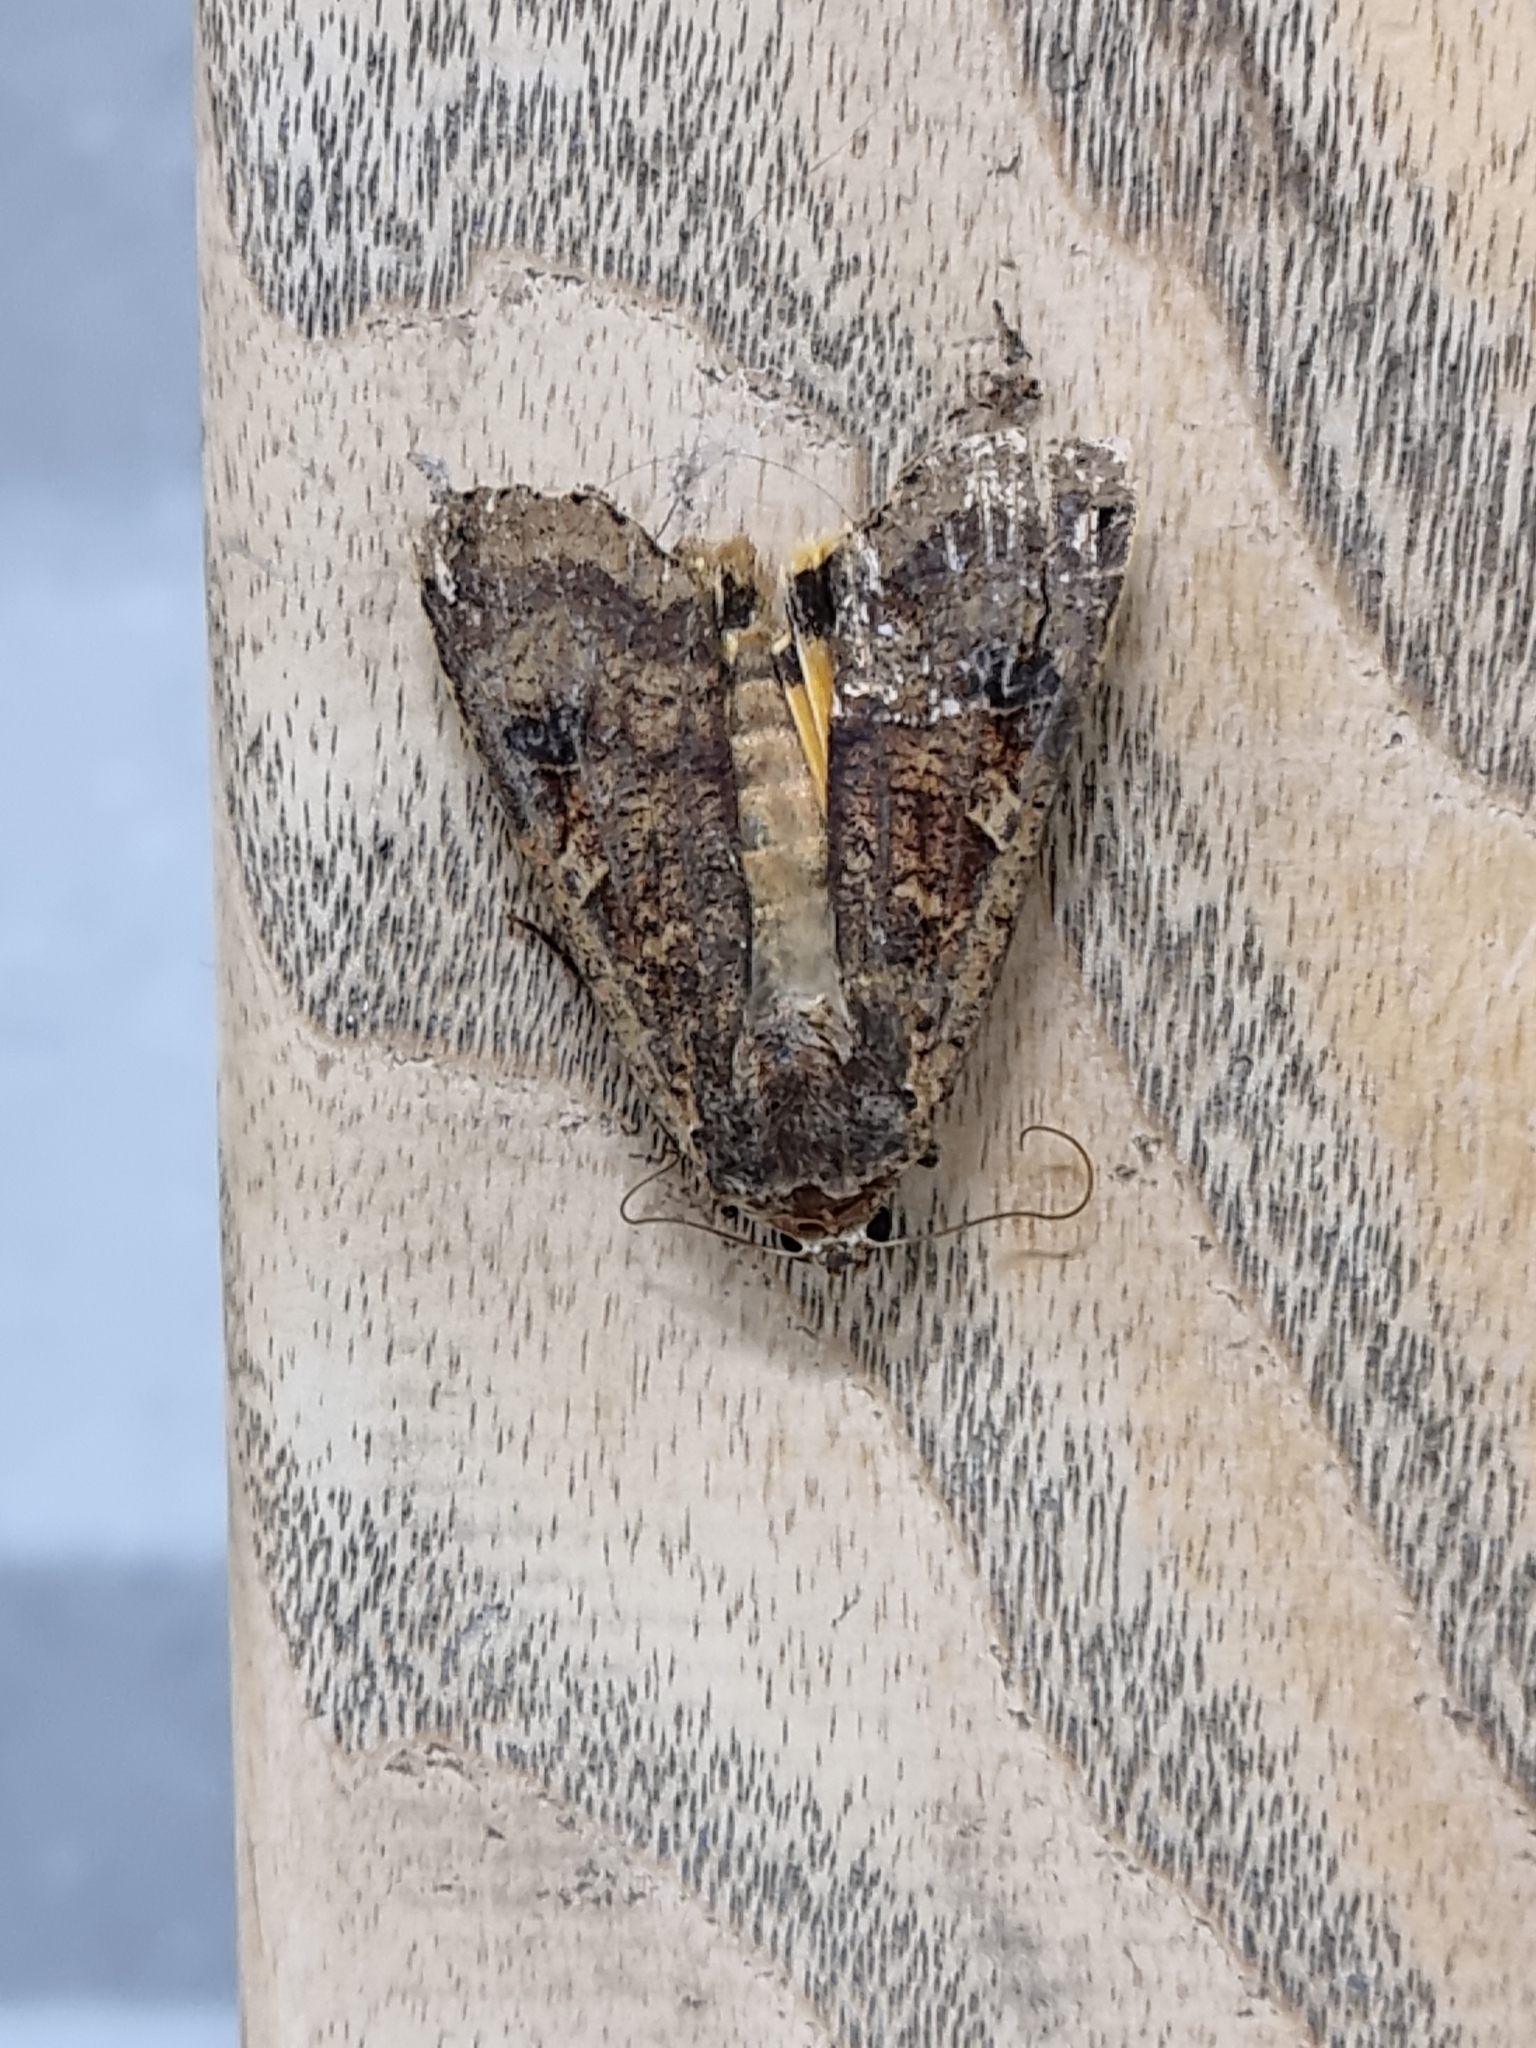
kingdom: Animalia
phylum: Arthropoda
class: Insecta
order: Lepidoptera
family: Noctuidae
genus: Noctua
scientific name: Noctua pronuba
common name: Large yellow underwing
